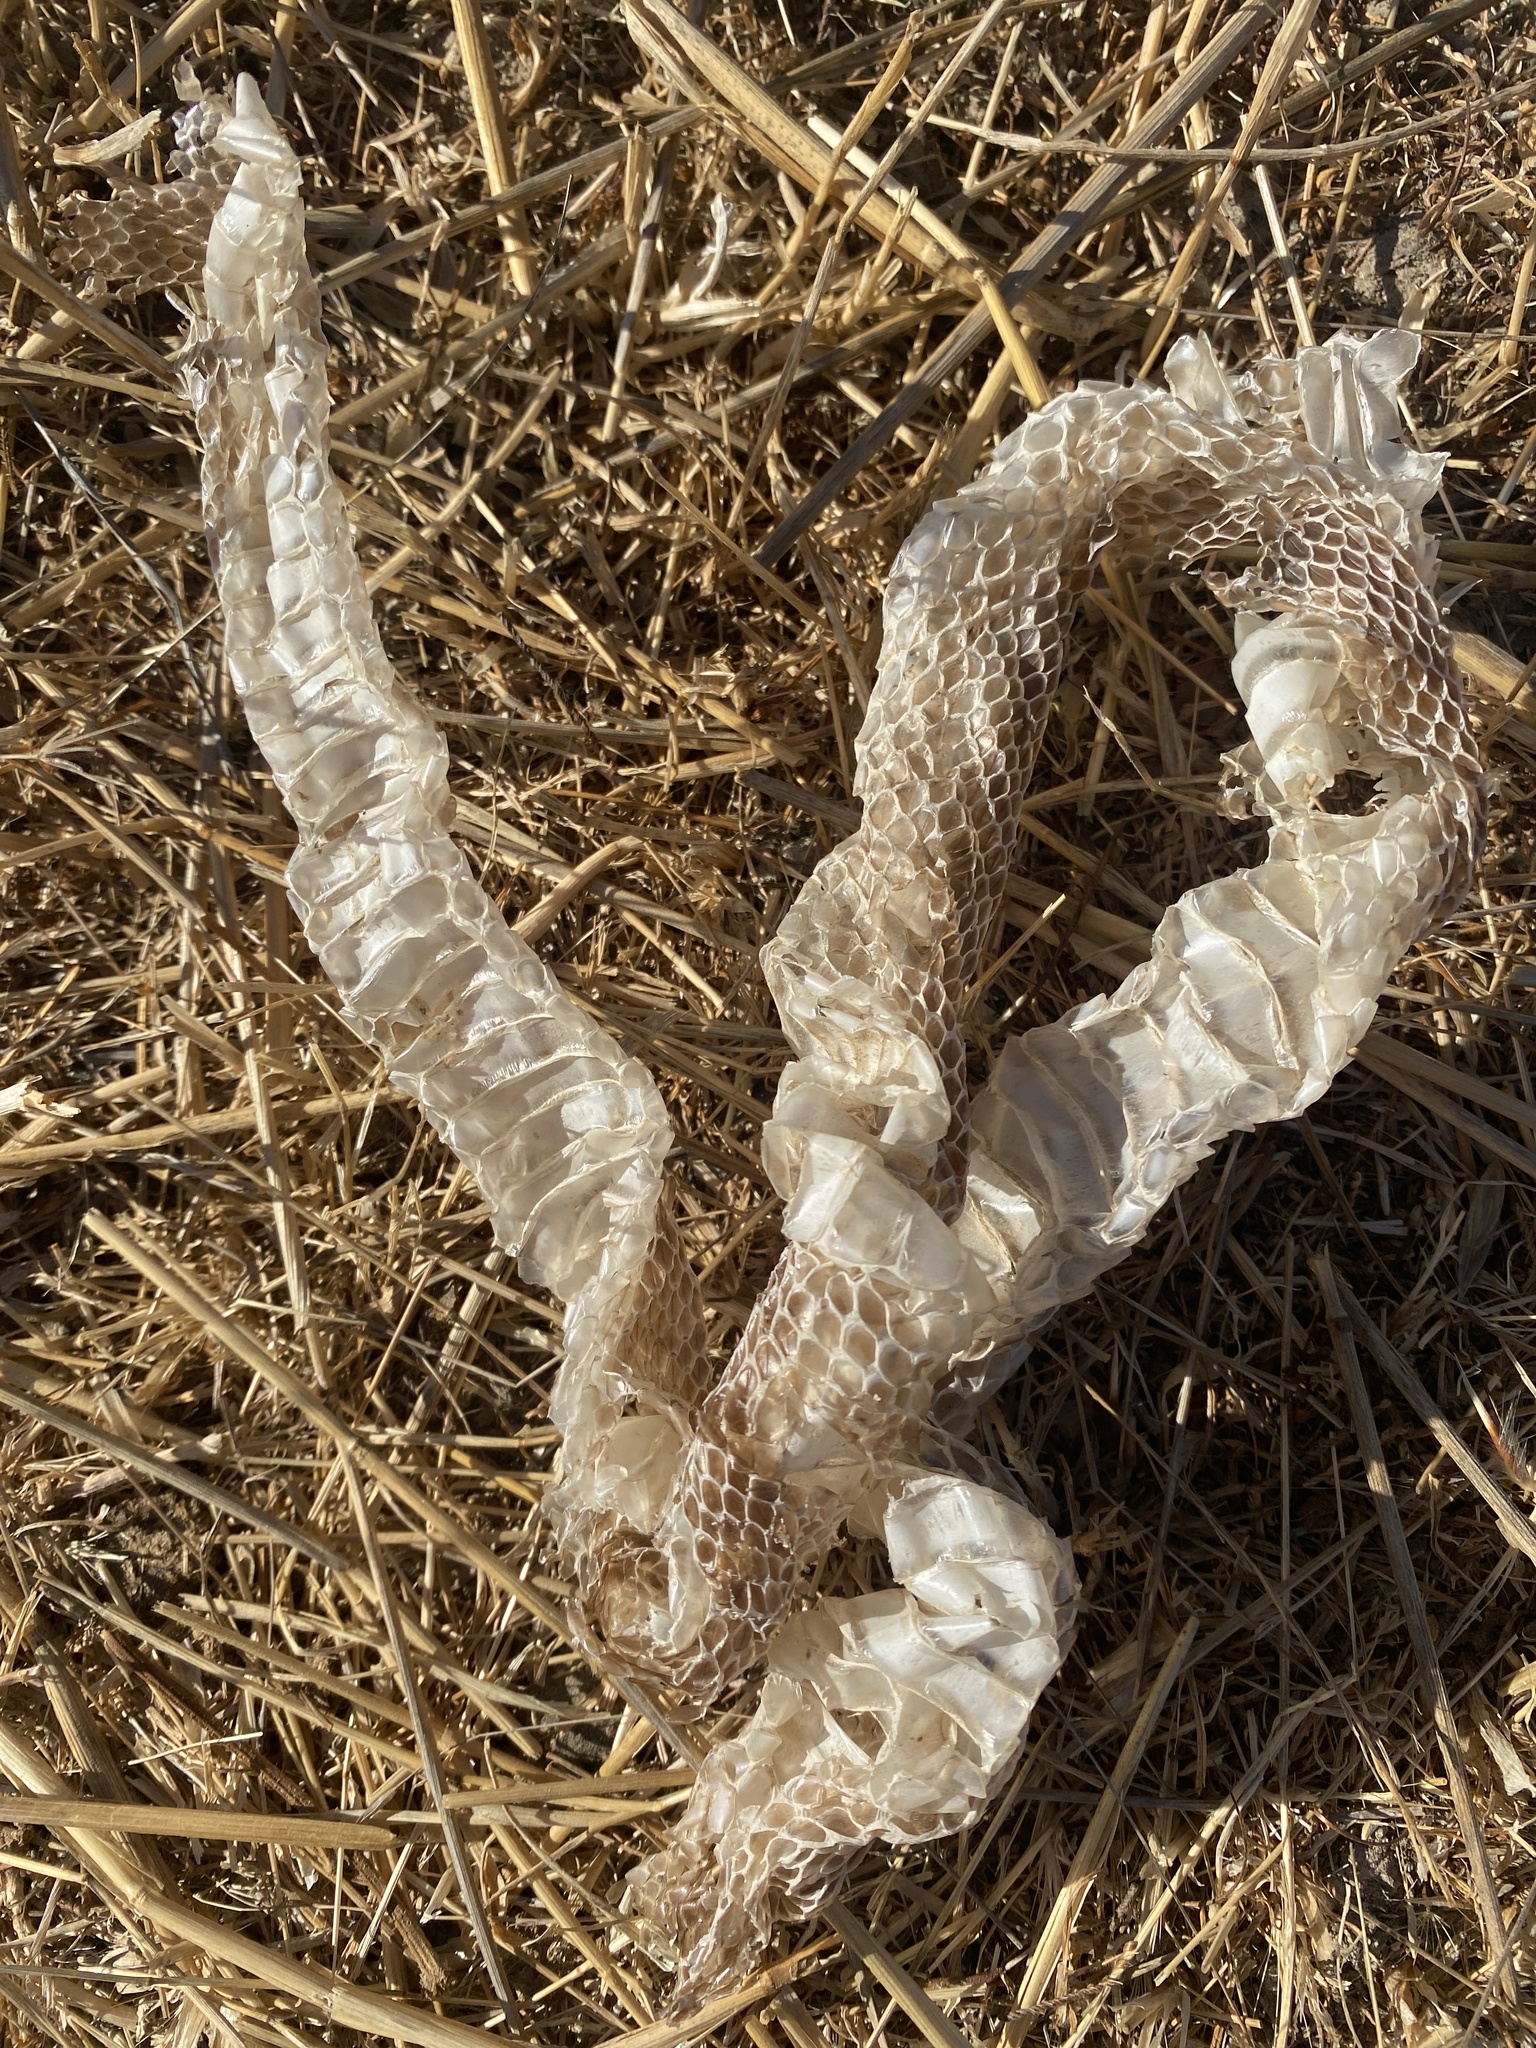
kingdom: Animalia
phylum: Chordata
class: Squamata
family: Viperidae
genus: Crotalus
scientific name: Crotalus oreganus
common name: Abyssus
